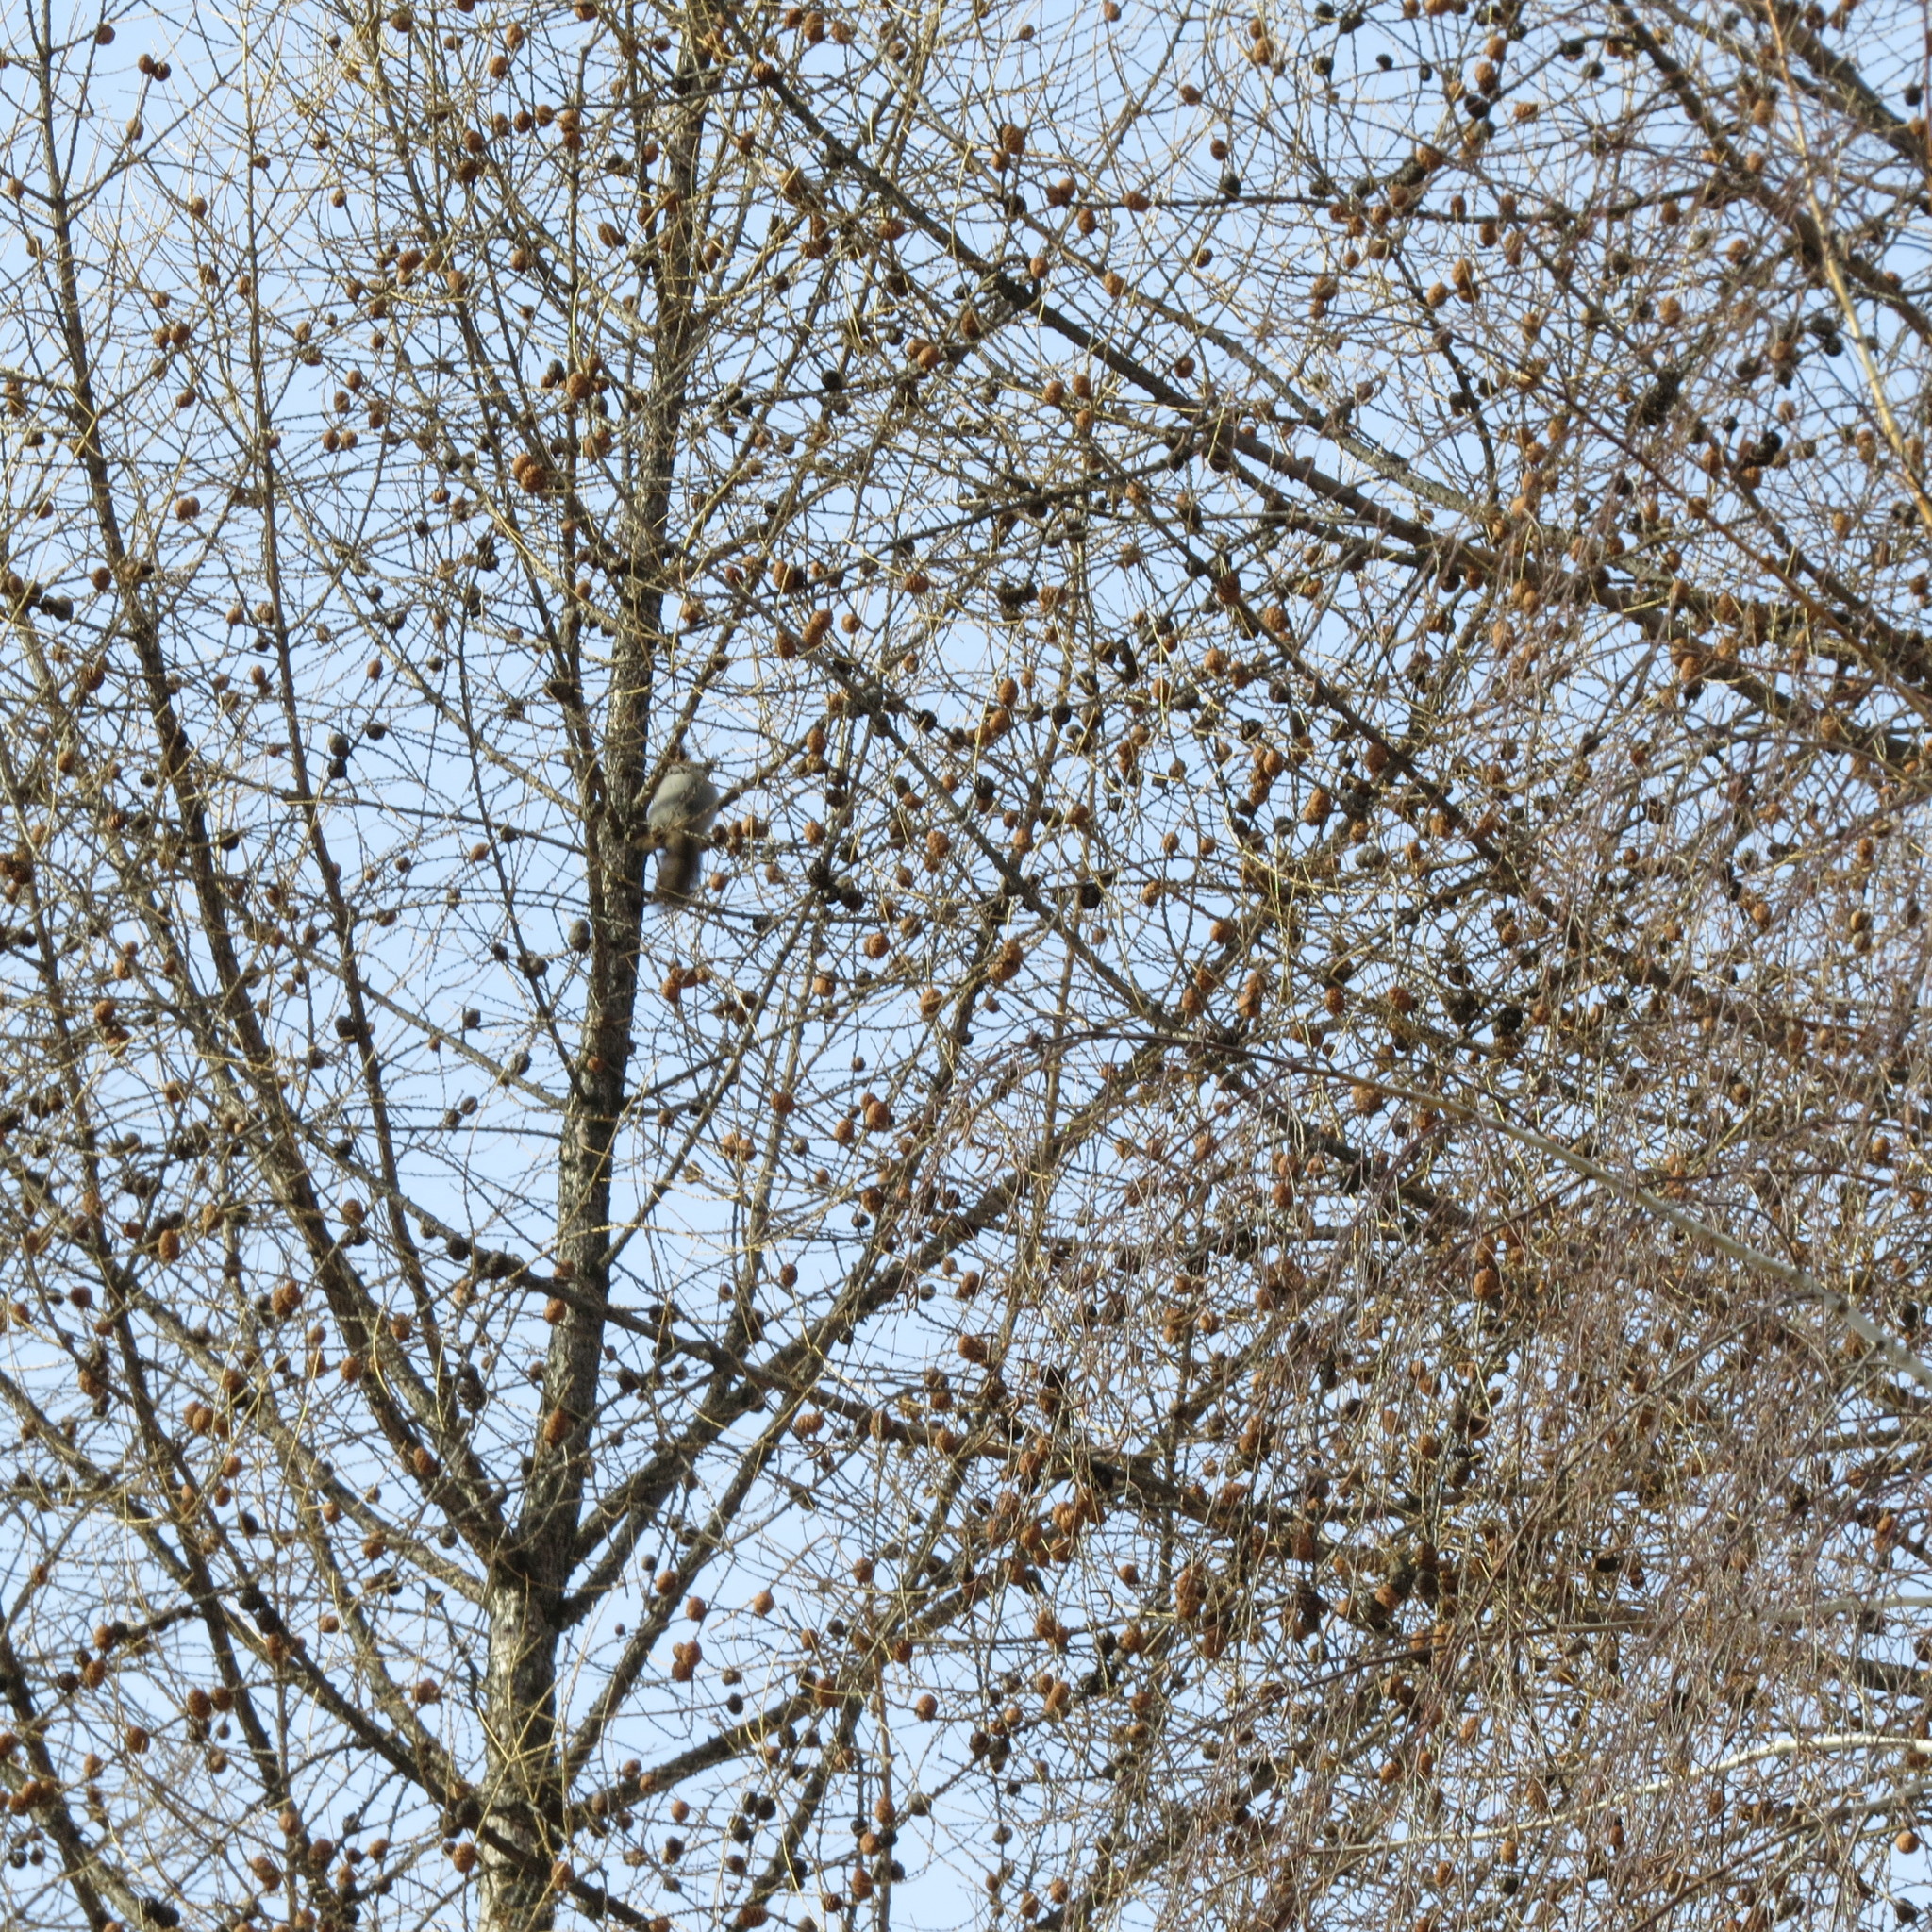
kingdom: Animalia
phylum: Chordata
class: Mammalia
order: Rodentia
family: Sciuridae
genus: Sciurus
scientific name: Sciurus vulgaris
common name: Eurasian red squirrel
